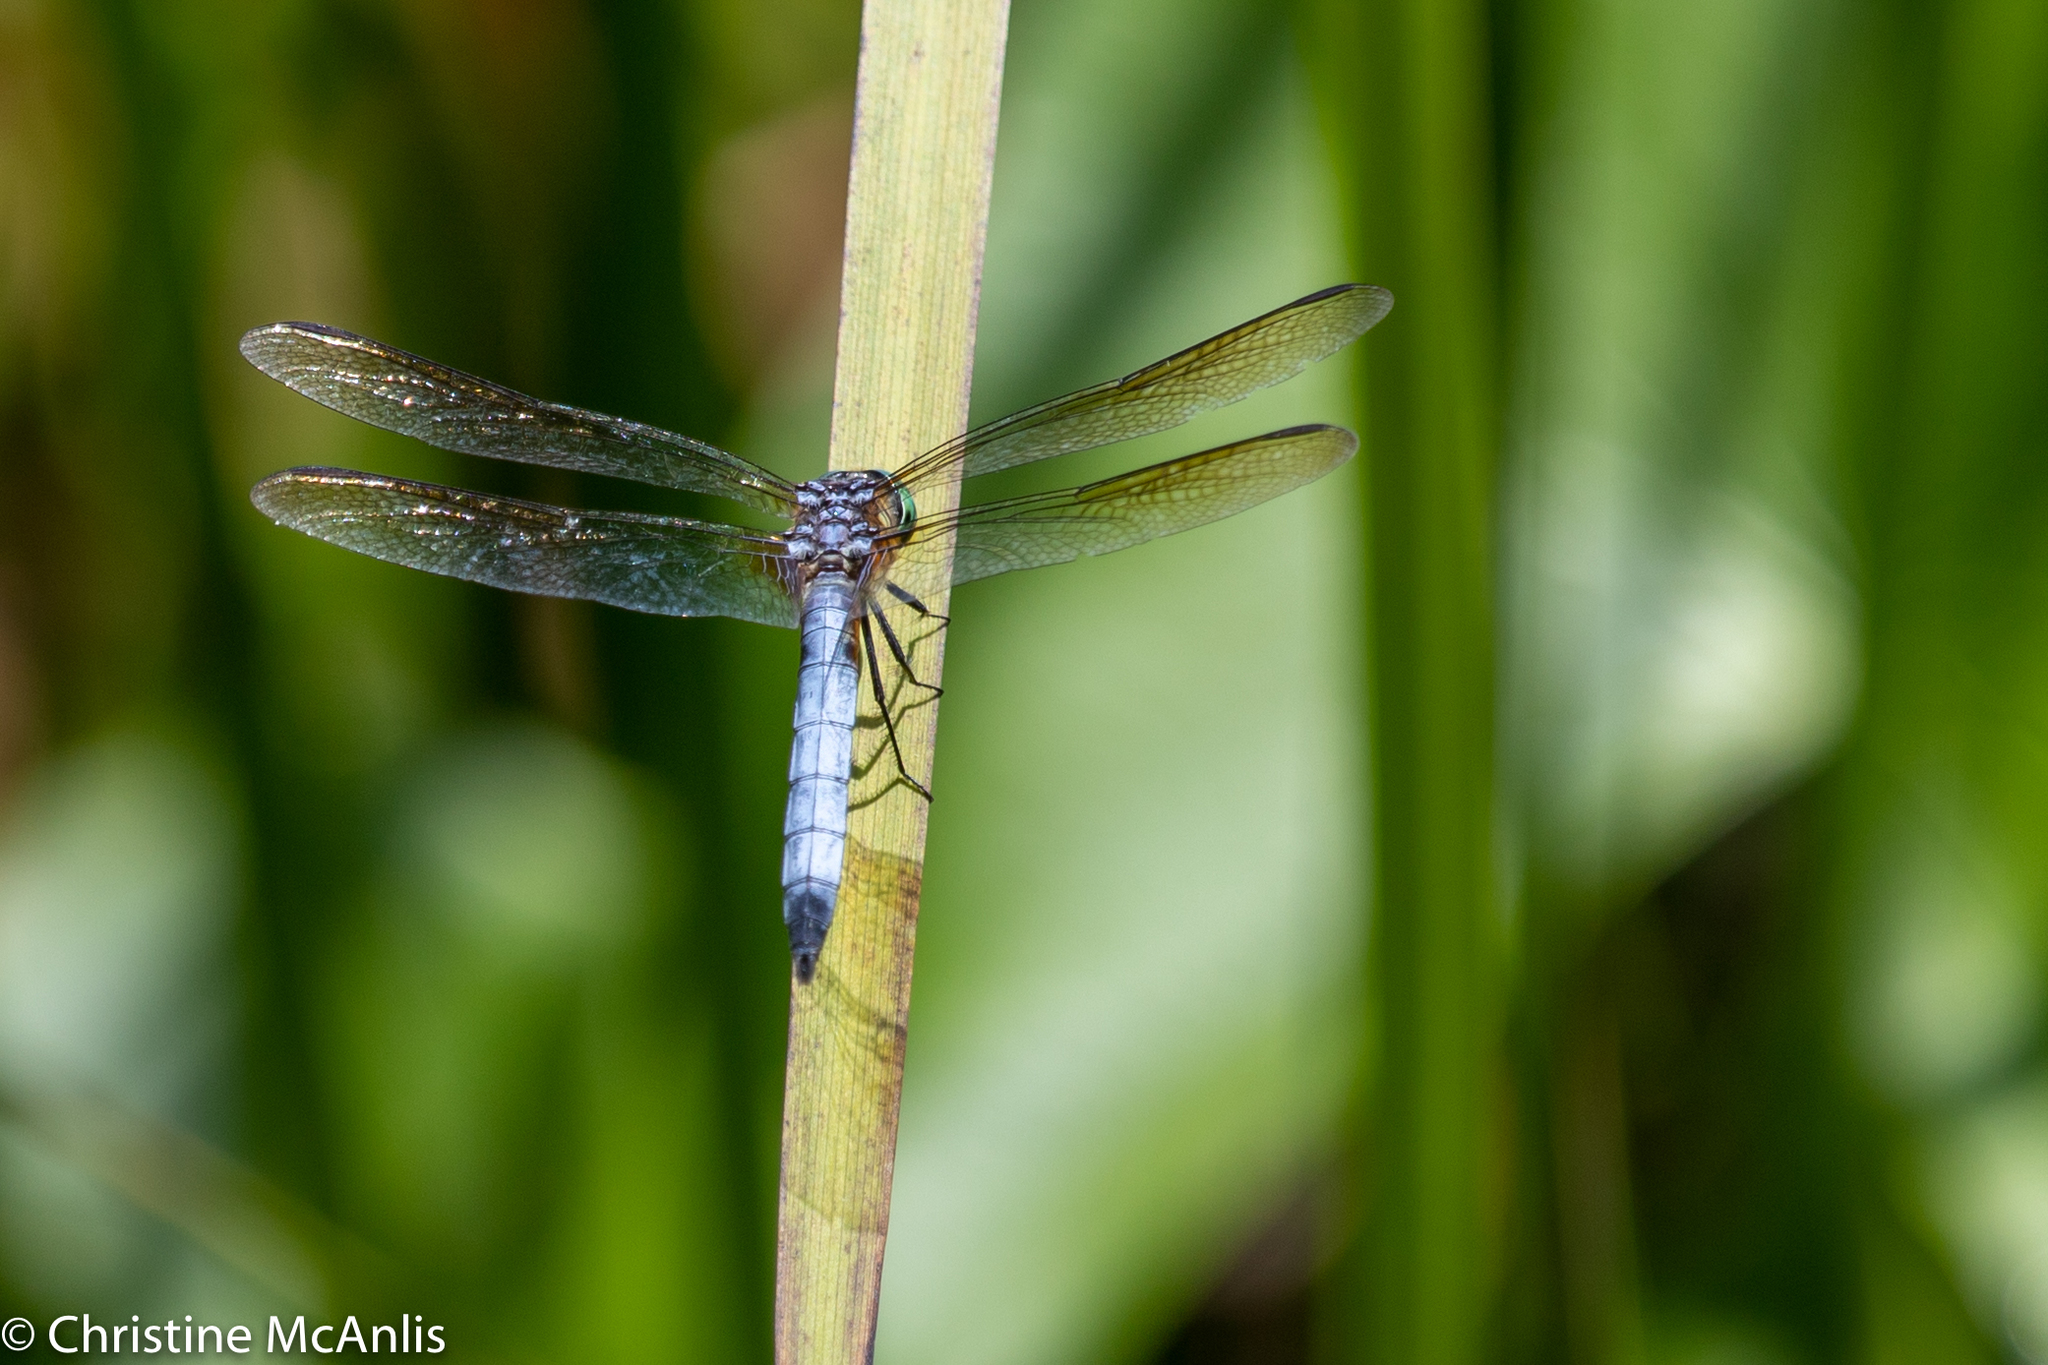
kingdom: Animalia
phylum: Arthropoda
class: Insecta
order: Odonata
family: Libellulidae
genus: Pachydiplax
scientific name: Pachydiplax longipennis
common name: Blue dasher
